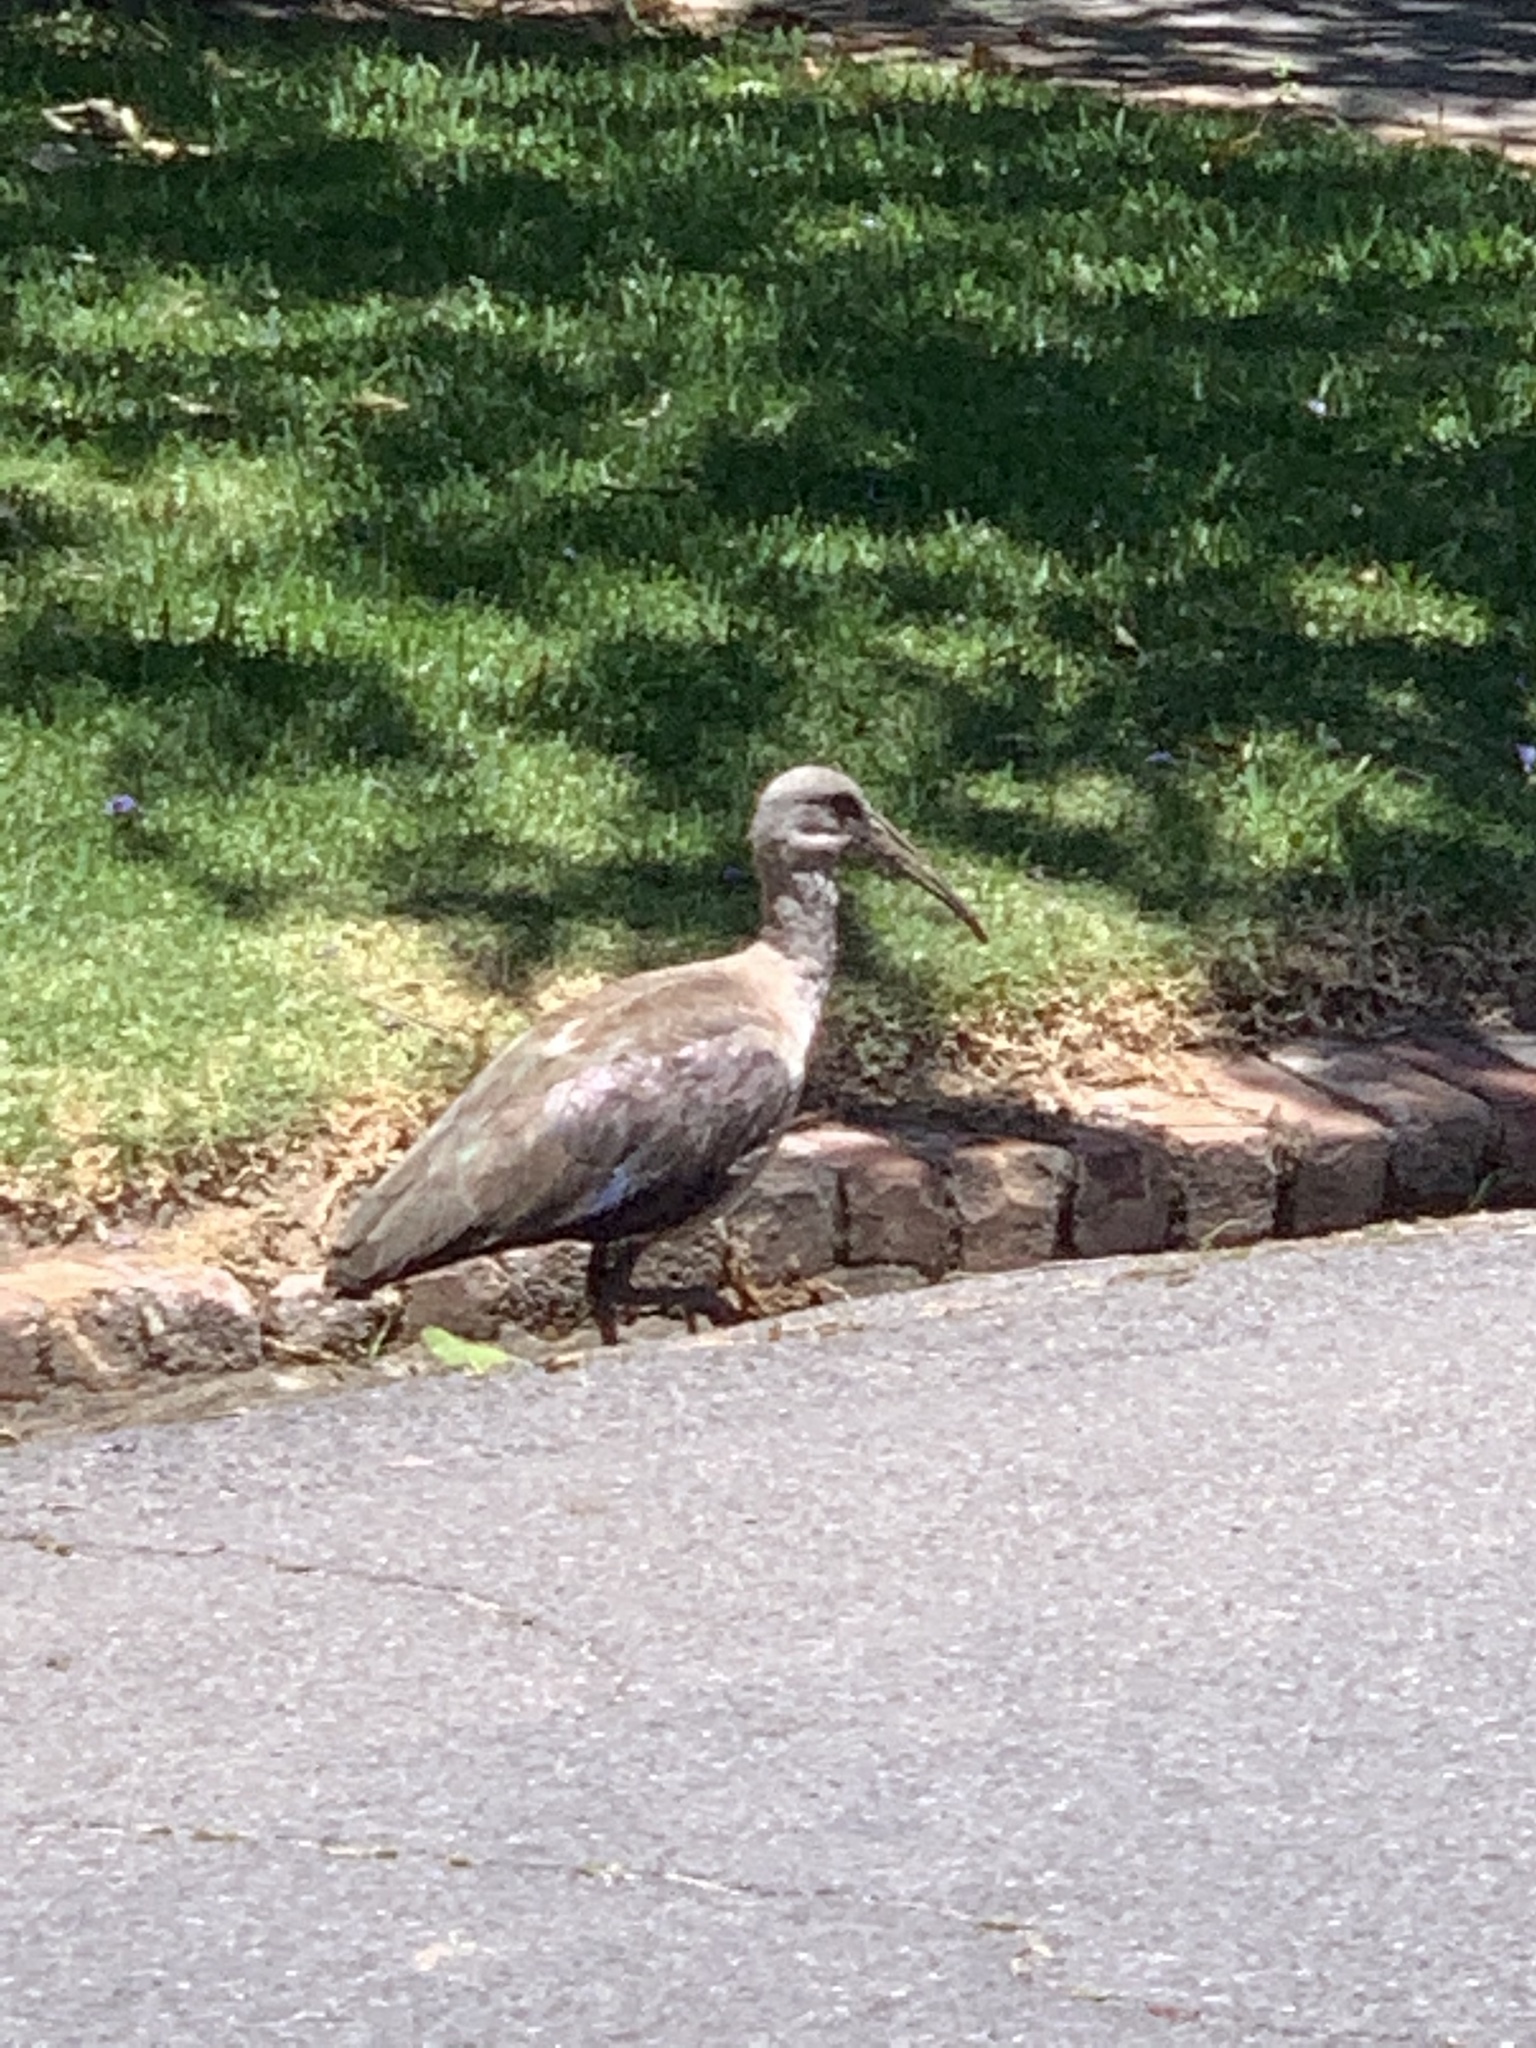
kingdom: Animalia
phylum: Chordata
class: Aves
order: Pelecaniformes
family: Threskiornithidae
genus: Bostrychia
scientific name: Bostrychia hagedash
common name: Hadada ibis
